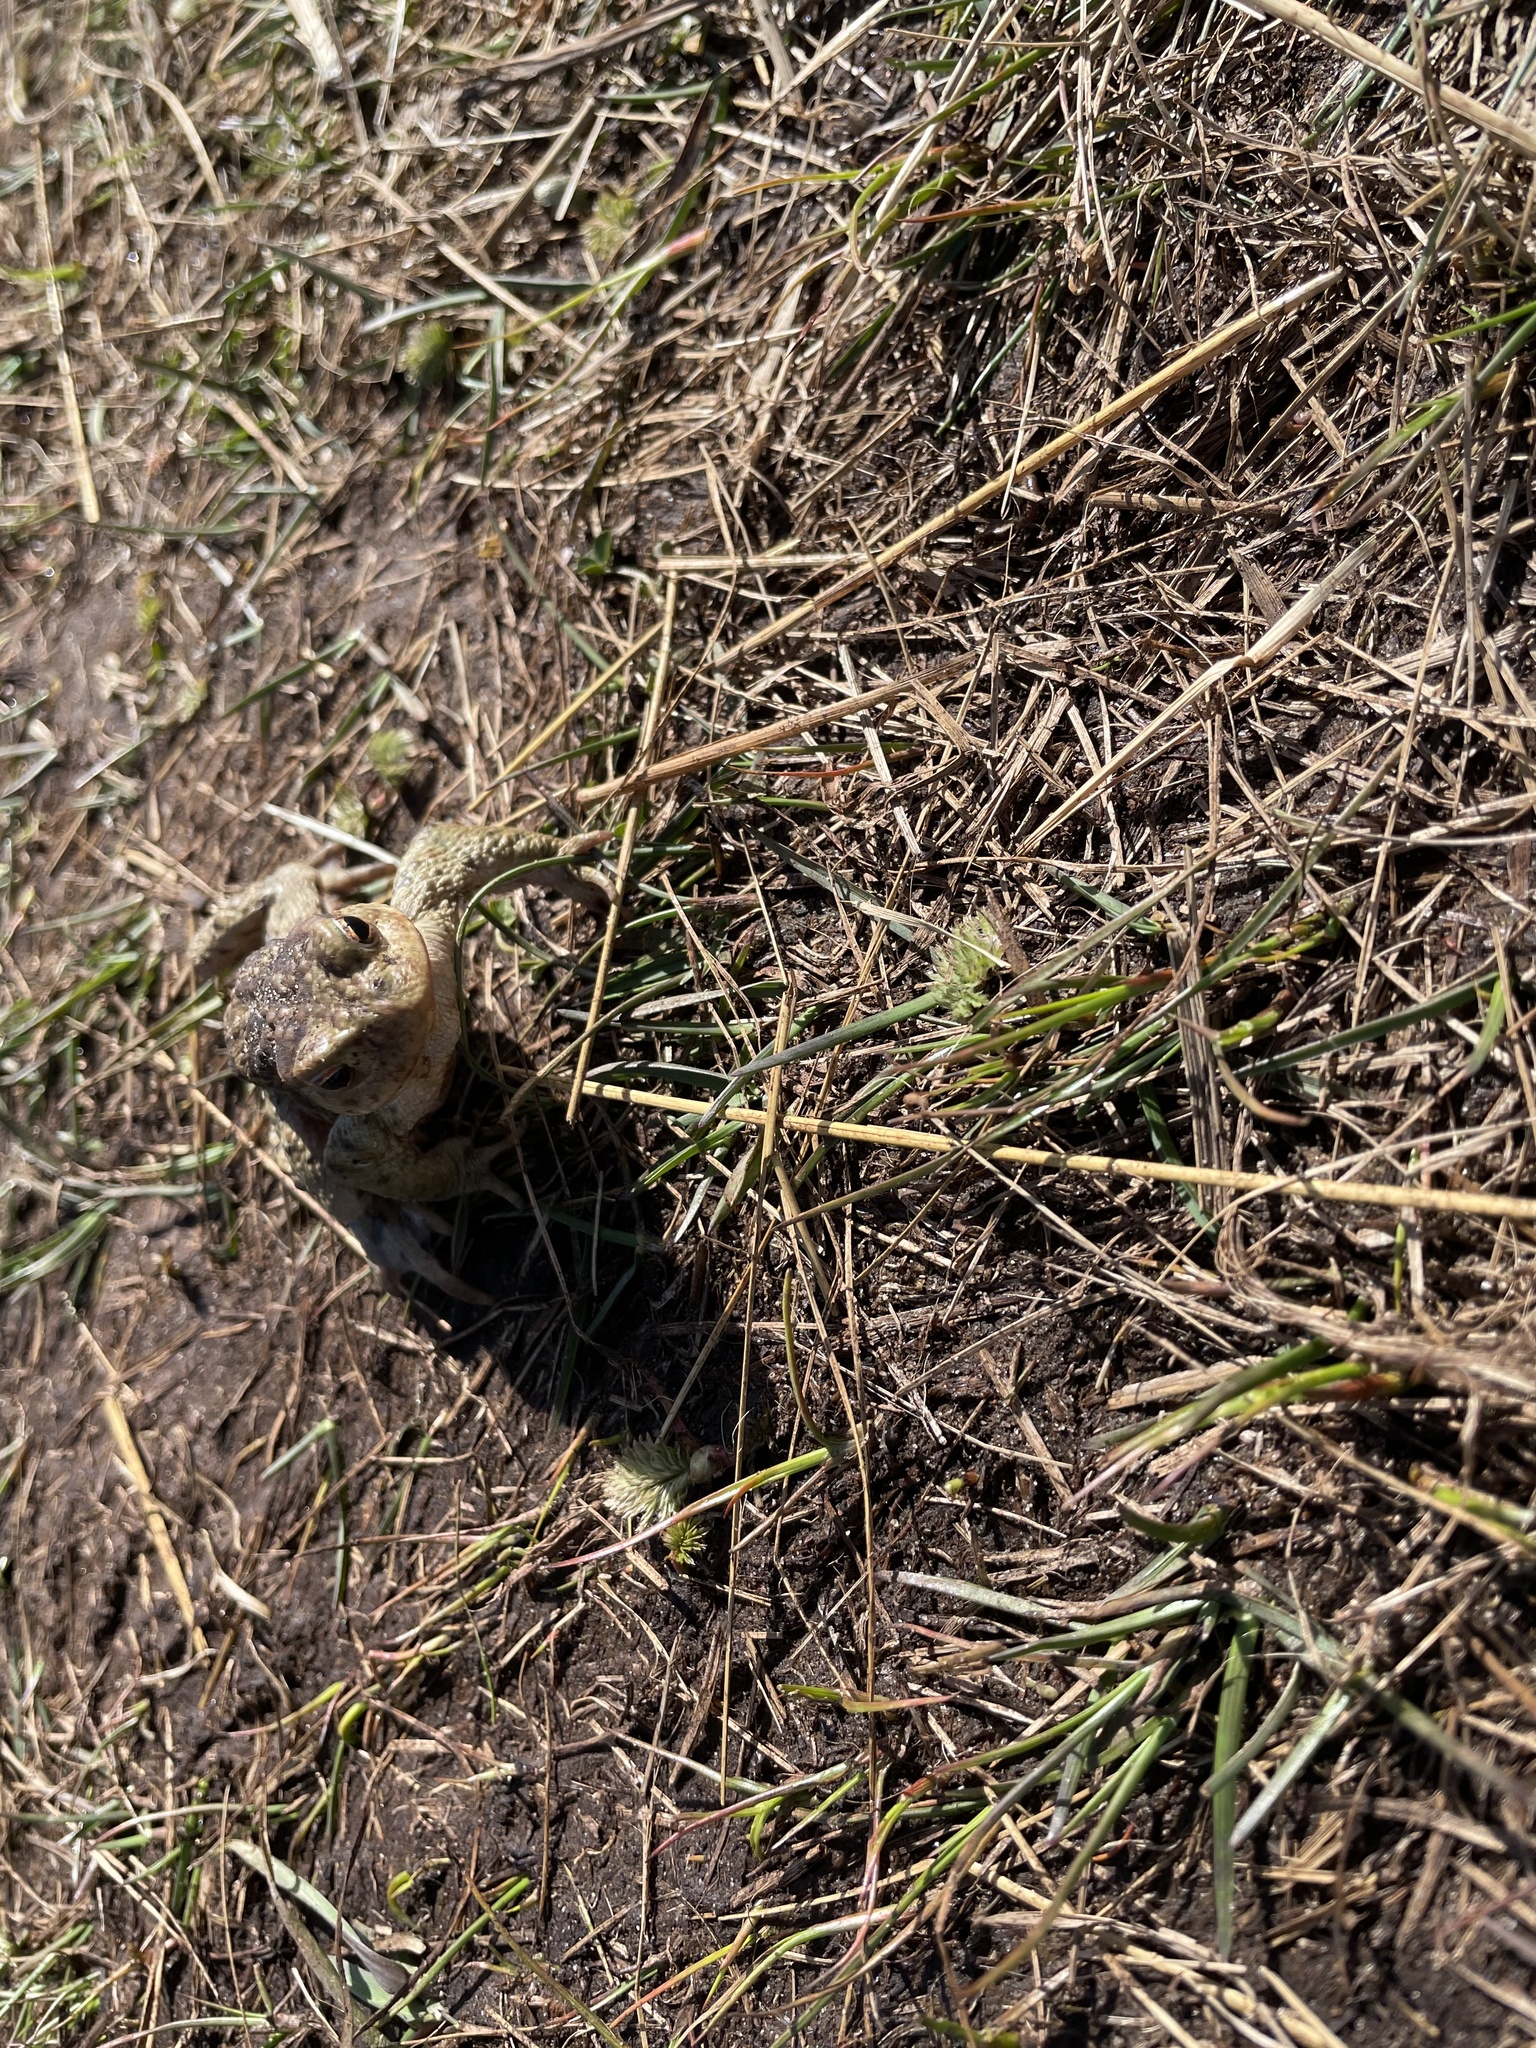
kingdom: Animalia
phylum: Chordata
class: Amphibia
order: Anura
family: Bufonidae
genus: Bufo
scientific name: Bufo bufo
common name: Common toad
